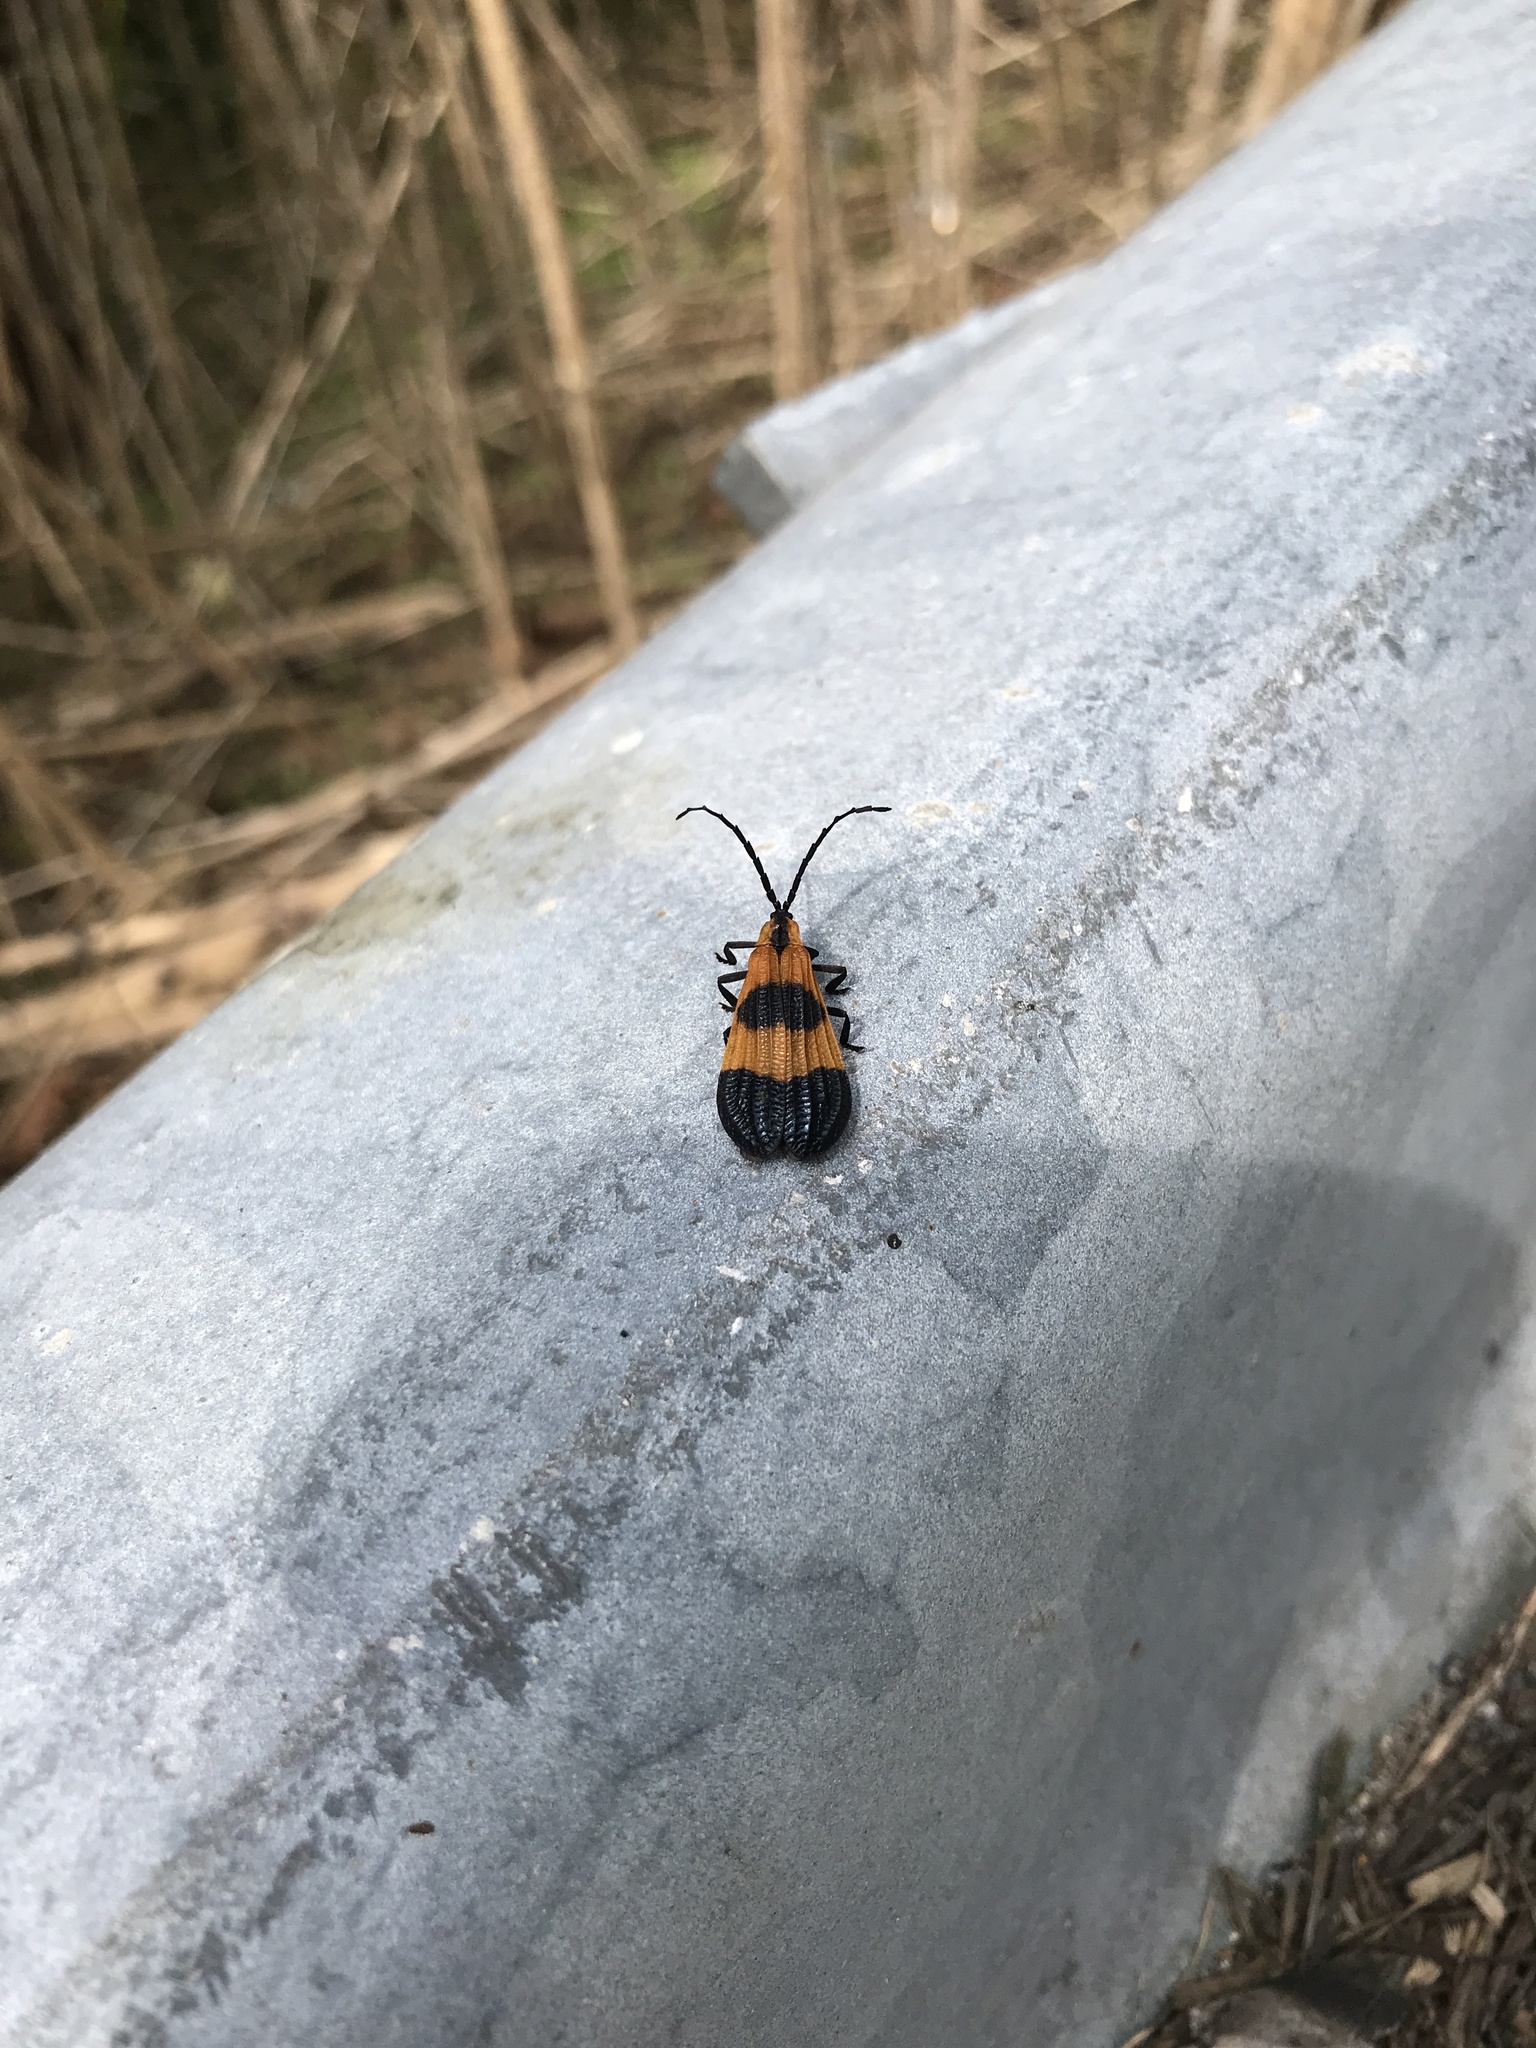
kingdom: Animalia
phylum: Arthropoda
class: Insecta
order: Coleoptera
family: Lycidae
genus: Calopteron
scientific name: Calopteron terminale
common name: End band net-winged beetle
